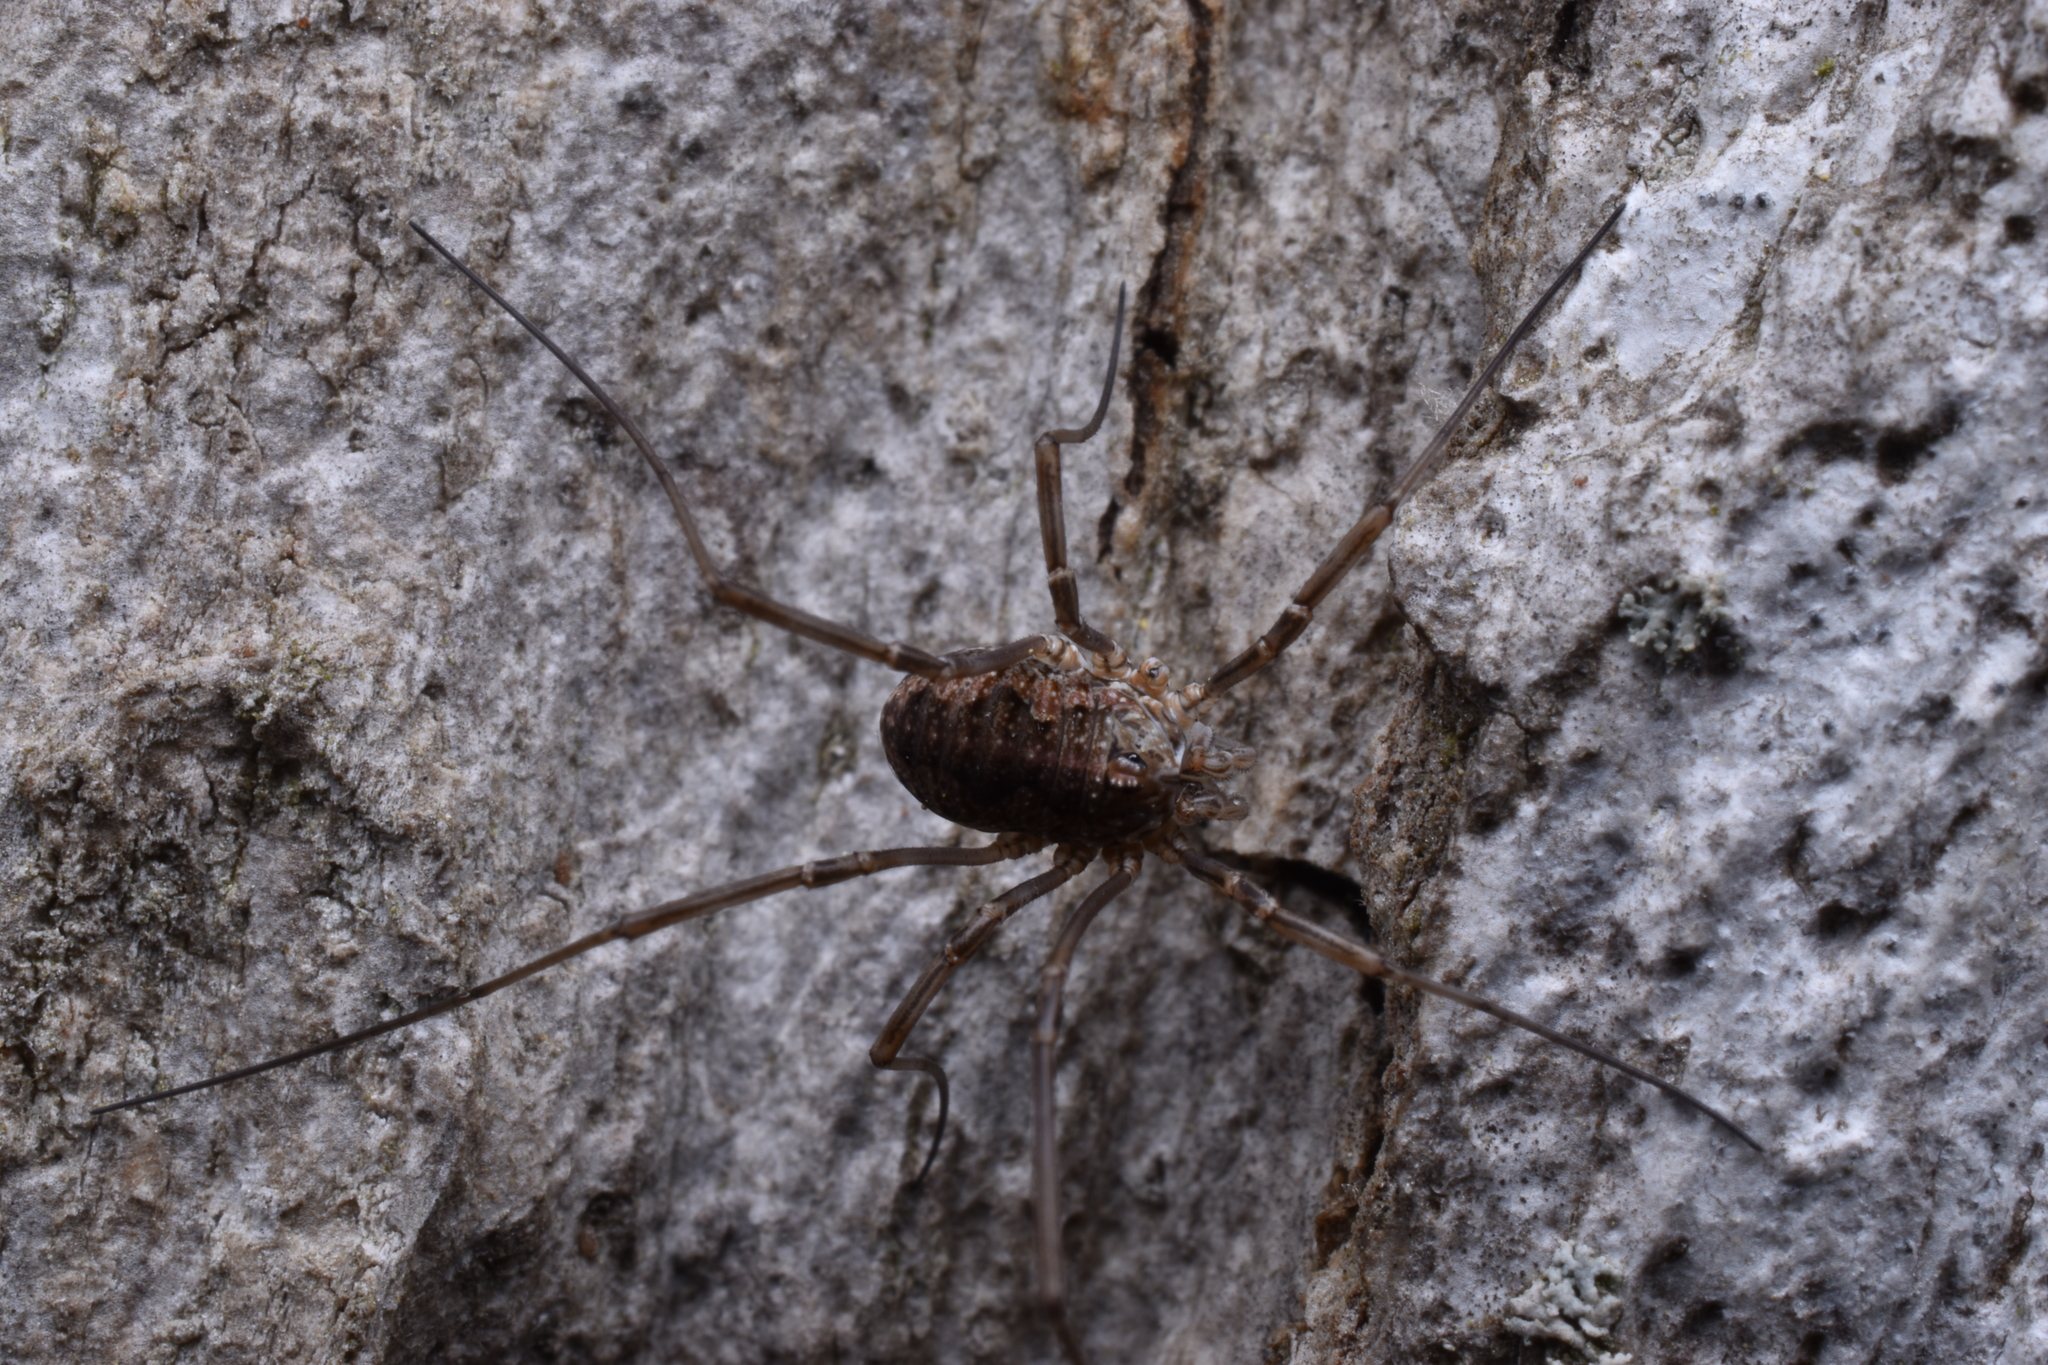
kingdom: Animalia
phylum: Arthropoda
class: Arachnida
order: Opiliones
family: Phalangiidae
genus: Phalangium
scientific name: Phalangium opilio
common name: Daddy longleg
